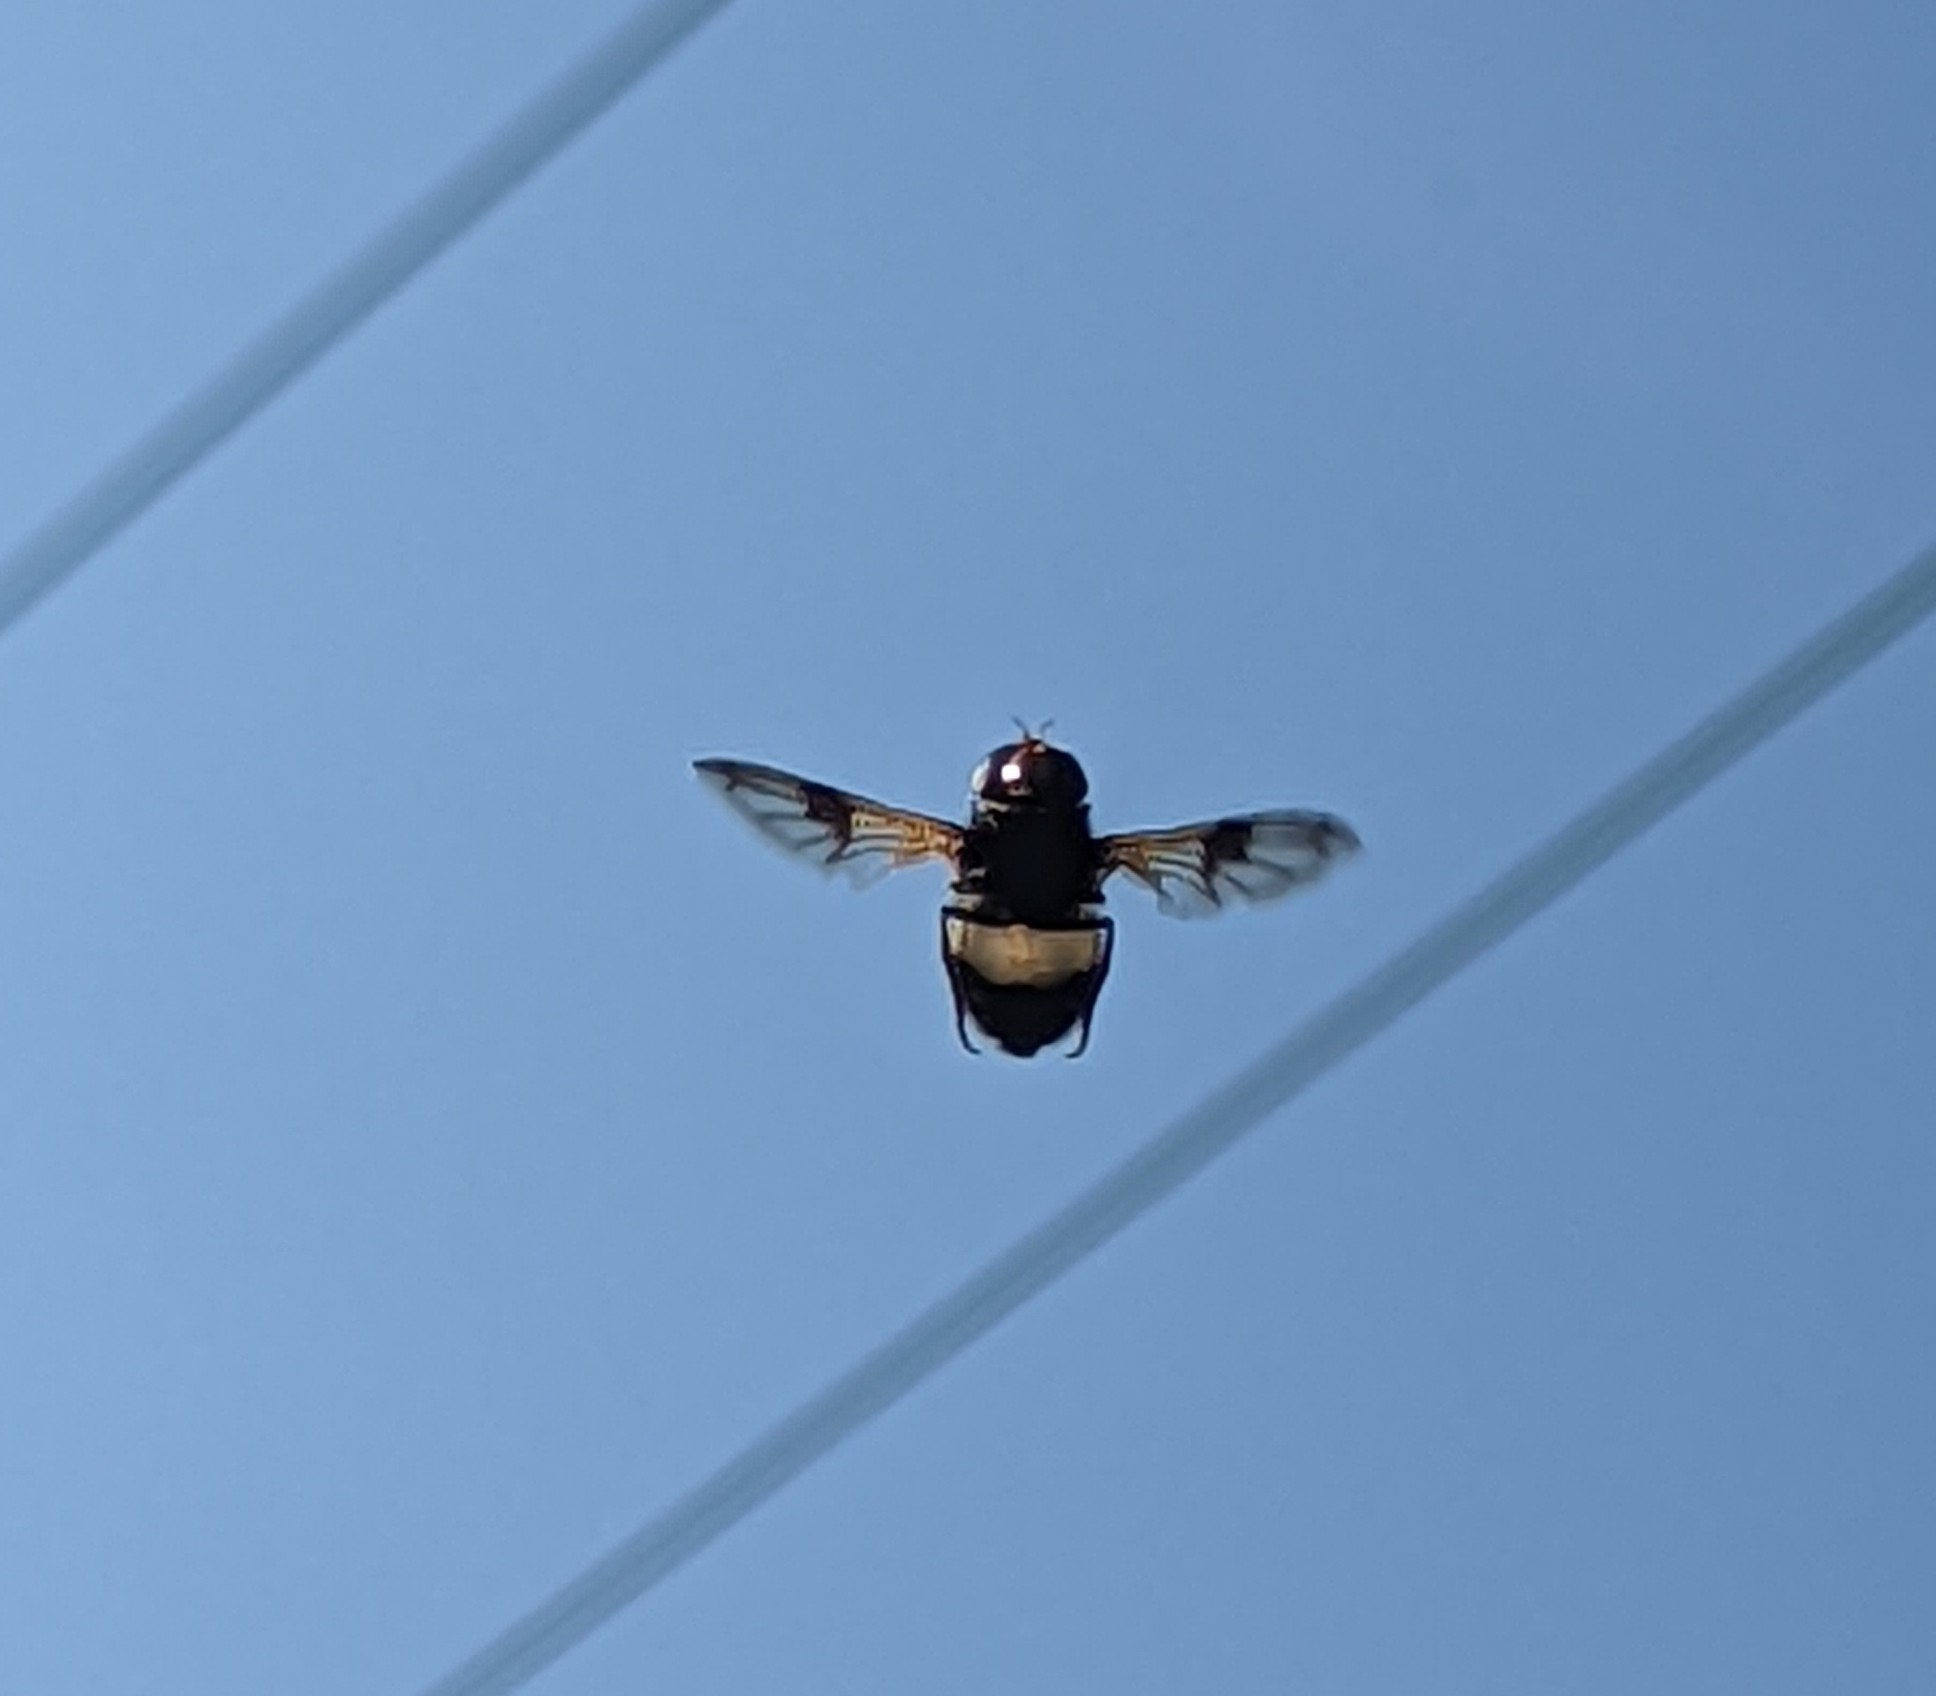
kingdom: Animalia
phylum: Arthropoda
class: Insecta
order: Diptera
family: Syrphidae
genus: Volucella
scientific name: Volucella pellucens
